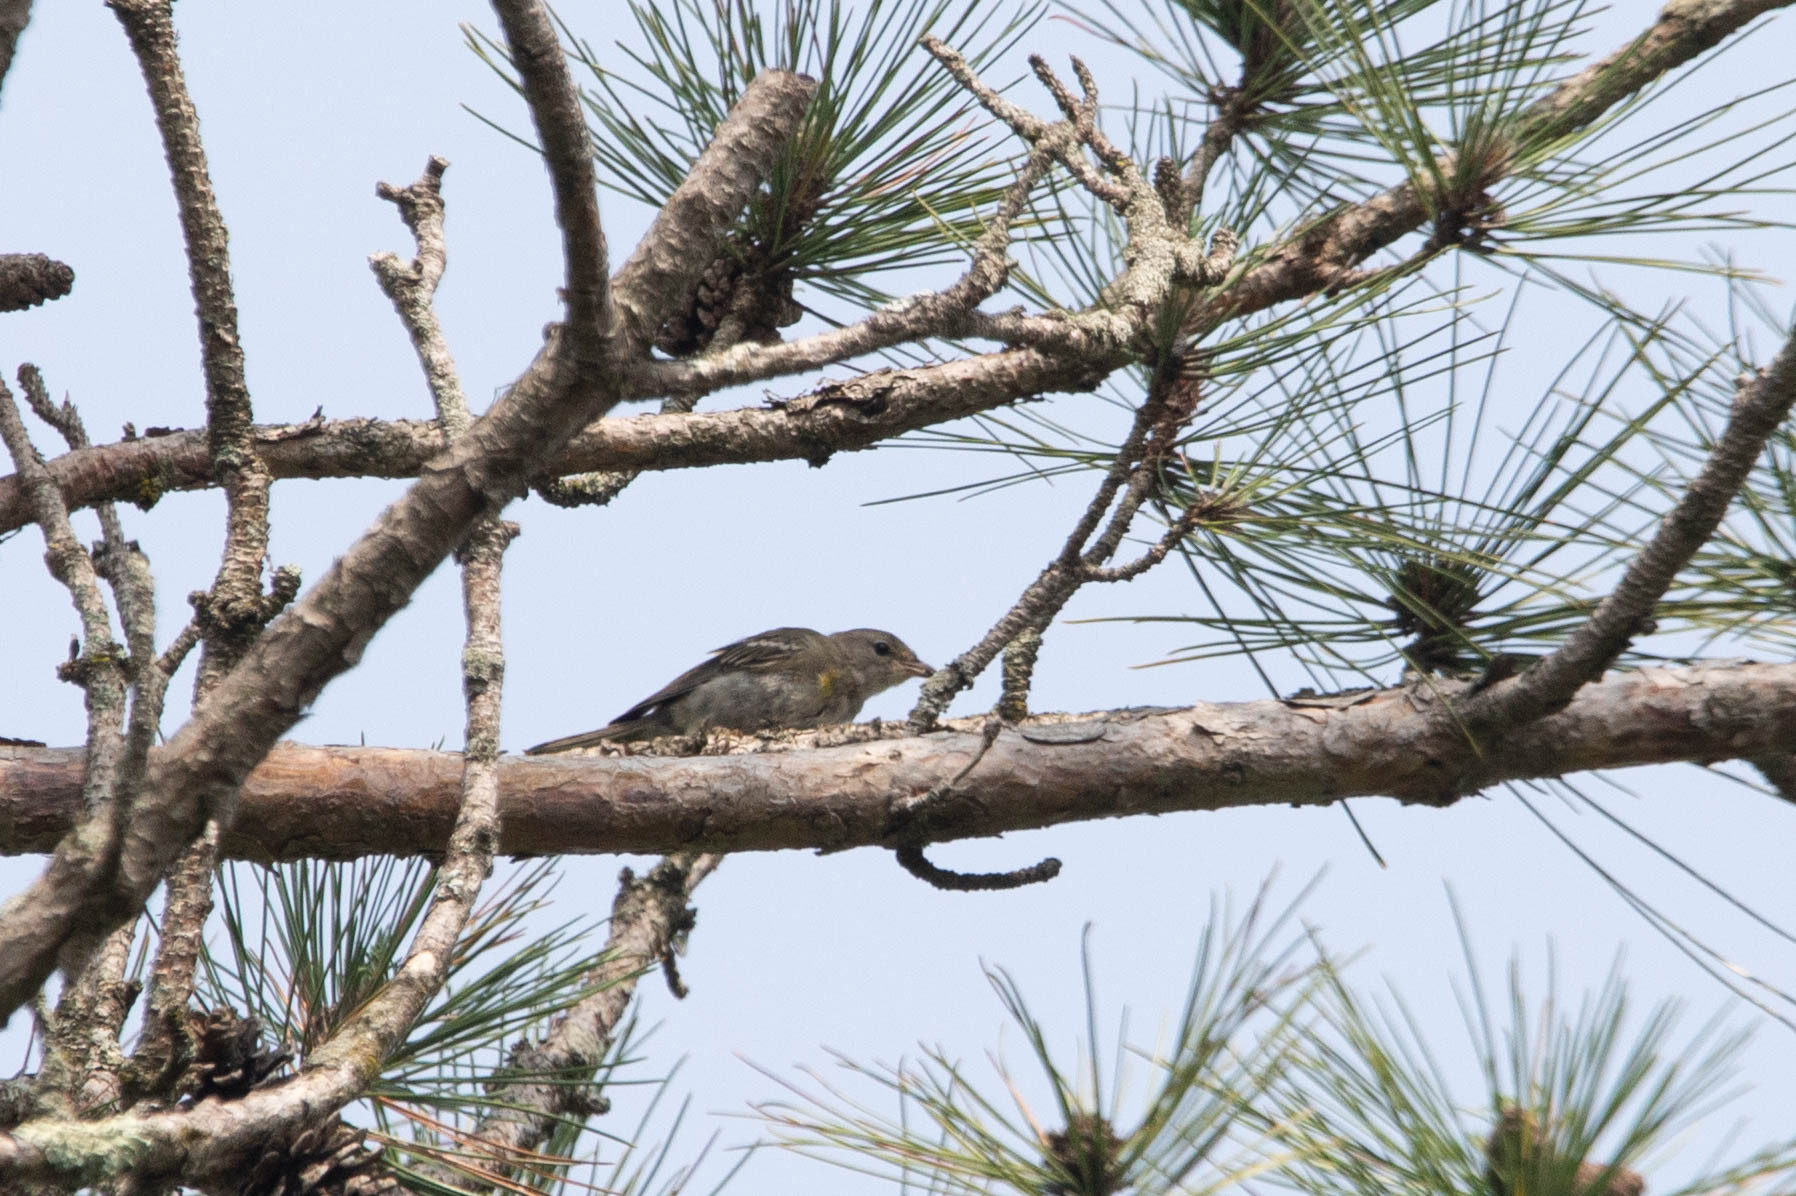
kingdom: Animalia
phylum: Chordata
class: Aves
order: Passeriformes
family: Parulidae
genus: Setophaga
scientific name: Setophaga pinus
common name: Pine warbler
